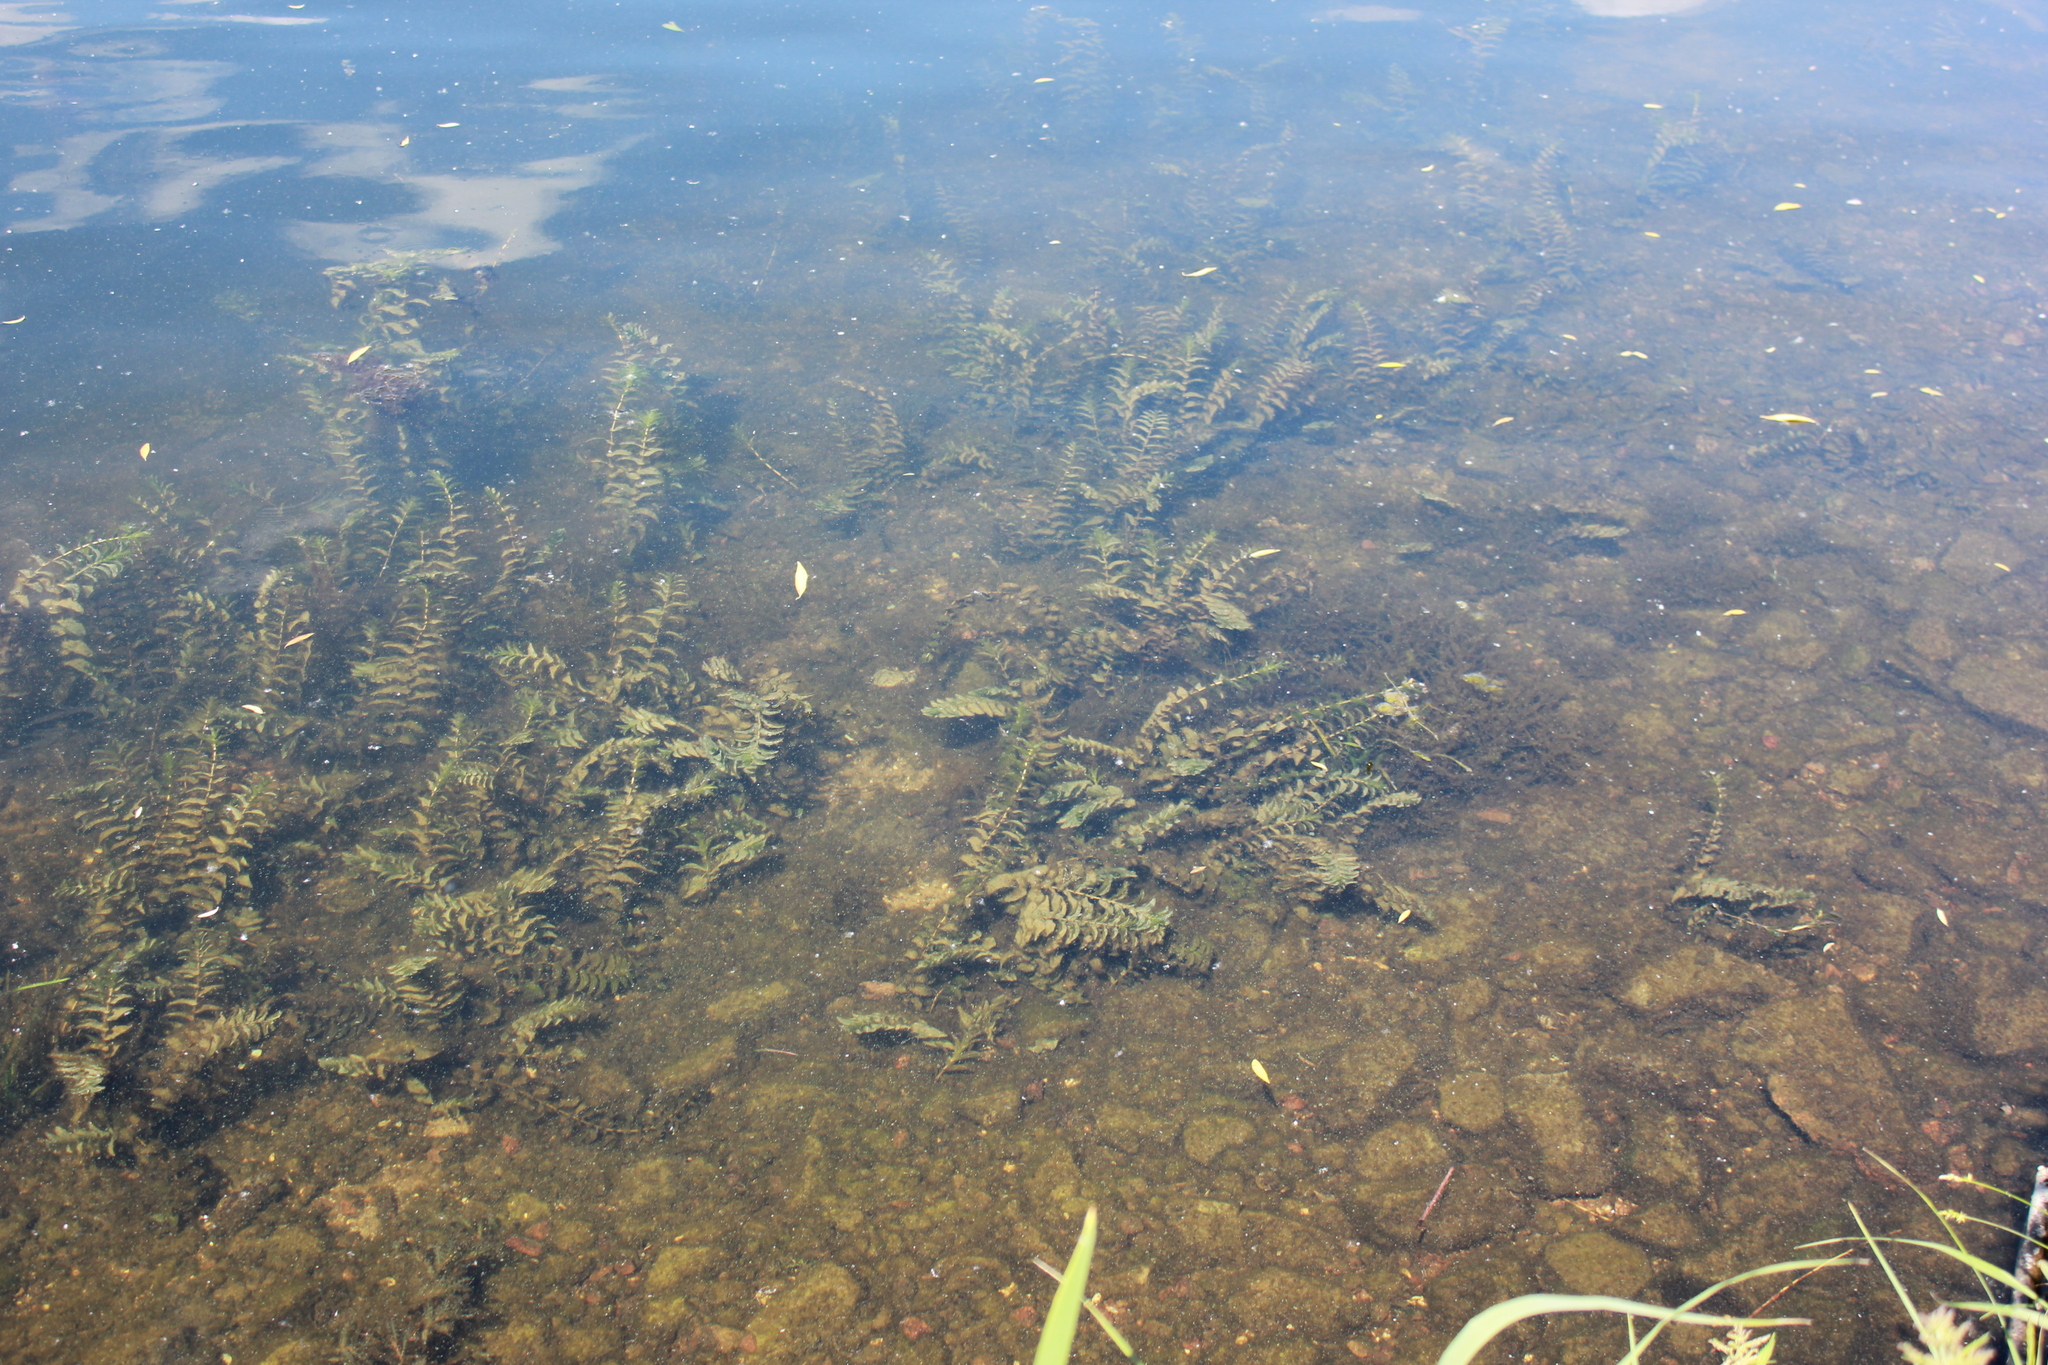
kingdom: Plantae
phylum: Tracheophyta
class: Liliopsida
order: Alismatales
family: Potamogetonaceae
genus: Potamogeton
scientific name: Potamogeton perfoliatus
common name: Perfoliate pondweed
